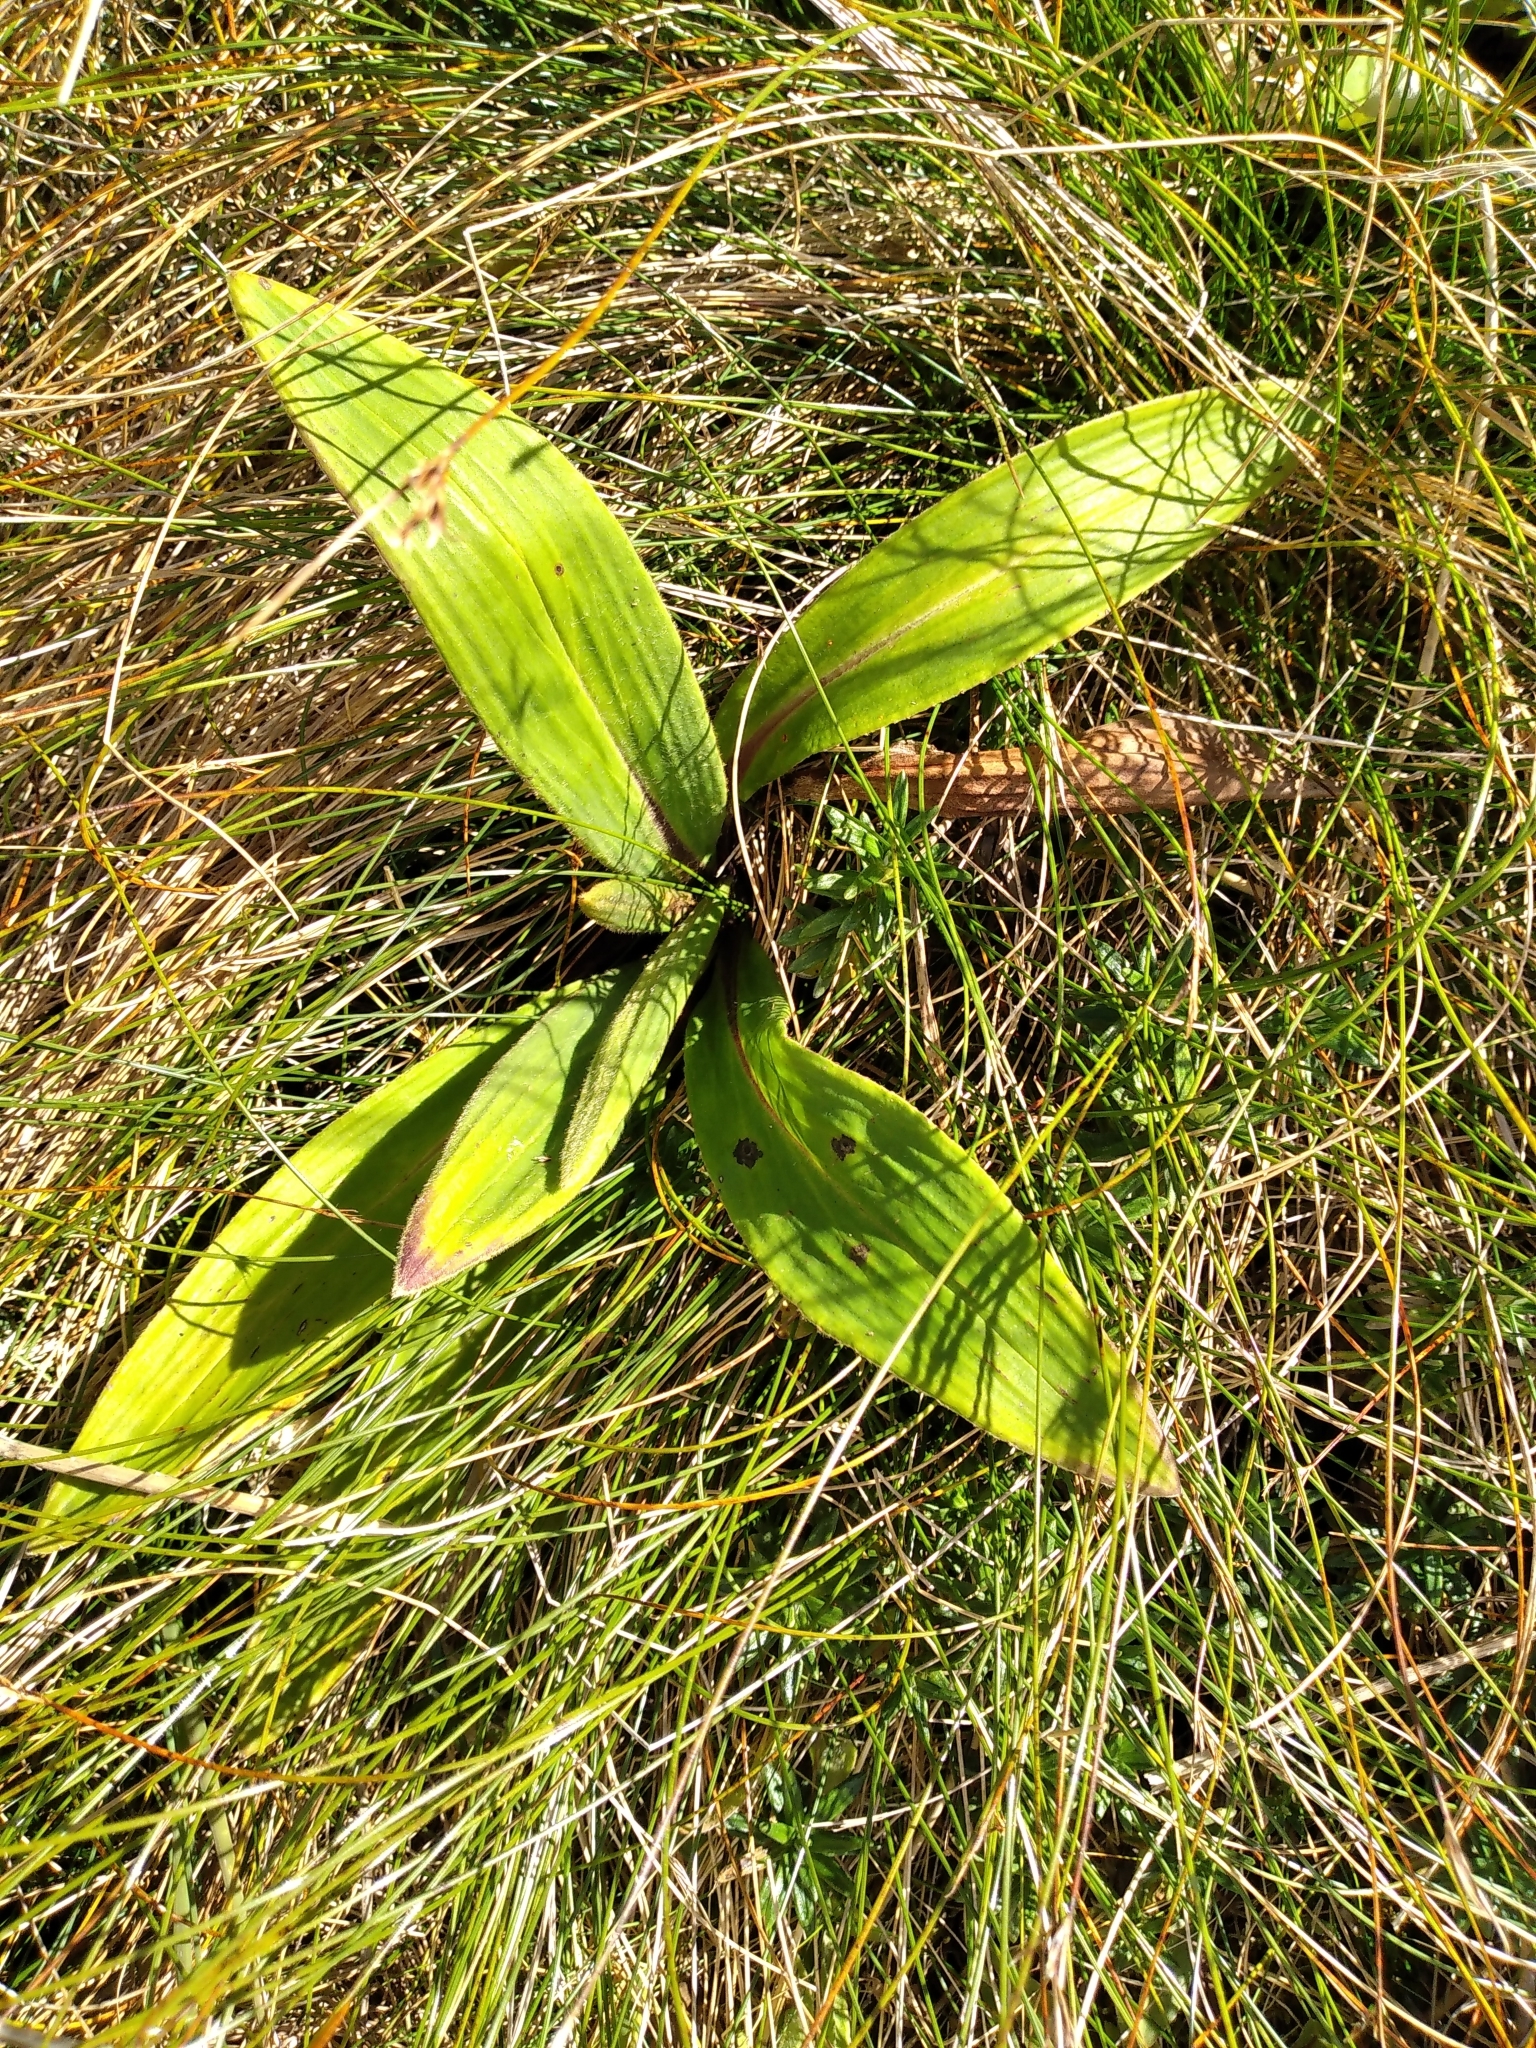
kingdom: Plantae
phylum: Tracheophyta
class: Magnoliopsida
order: Asterales
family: Asteraceae
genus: Celmisia
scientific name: Celmisia verbascifolia
